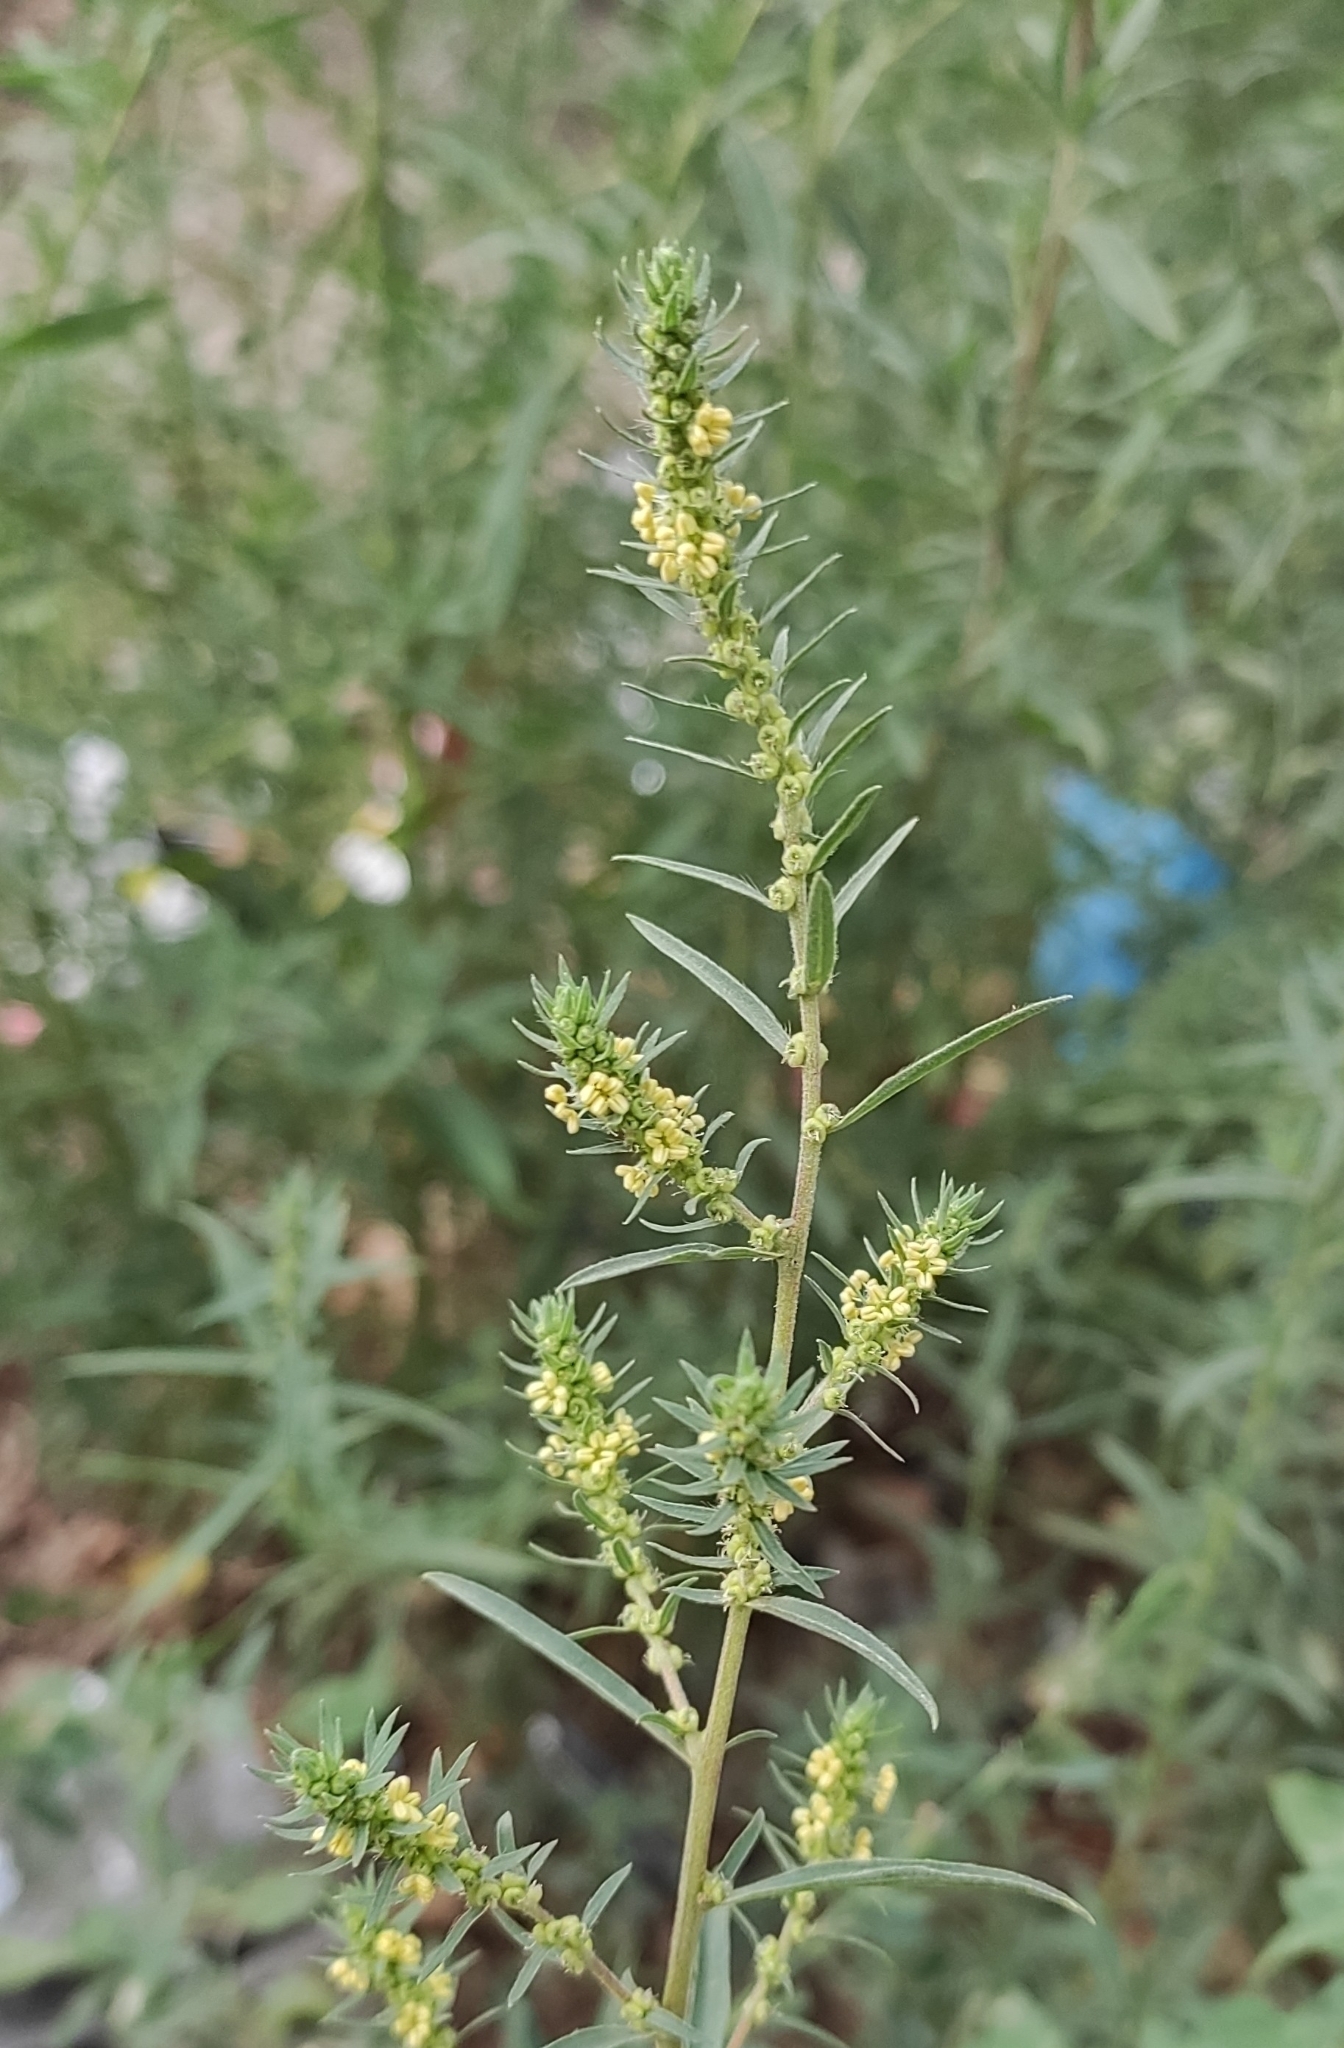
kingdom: Plantae
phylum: Tracheophyta
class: Magnoliopsida
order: Caryophyllales
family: Amaranthaceae
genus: Bassia
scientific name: Bassia scoparia
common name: Belvedere
